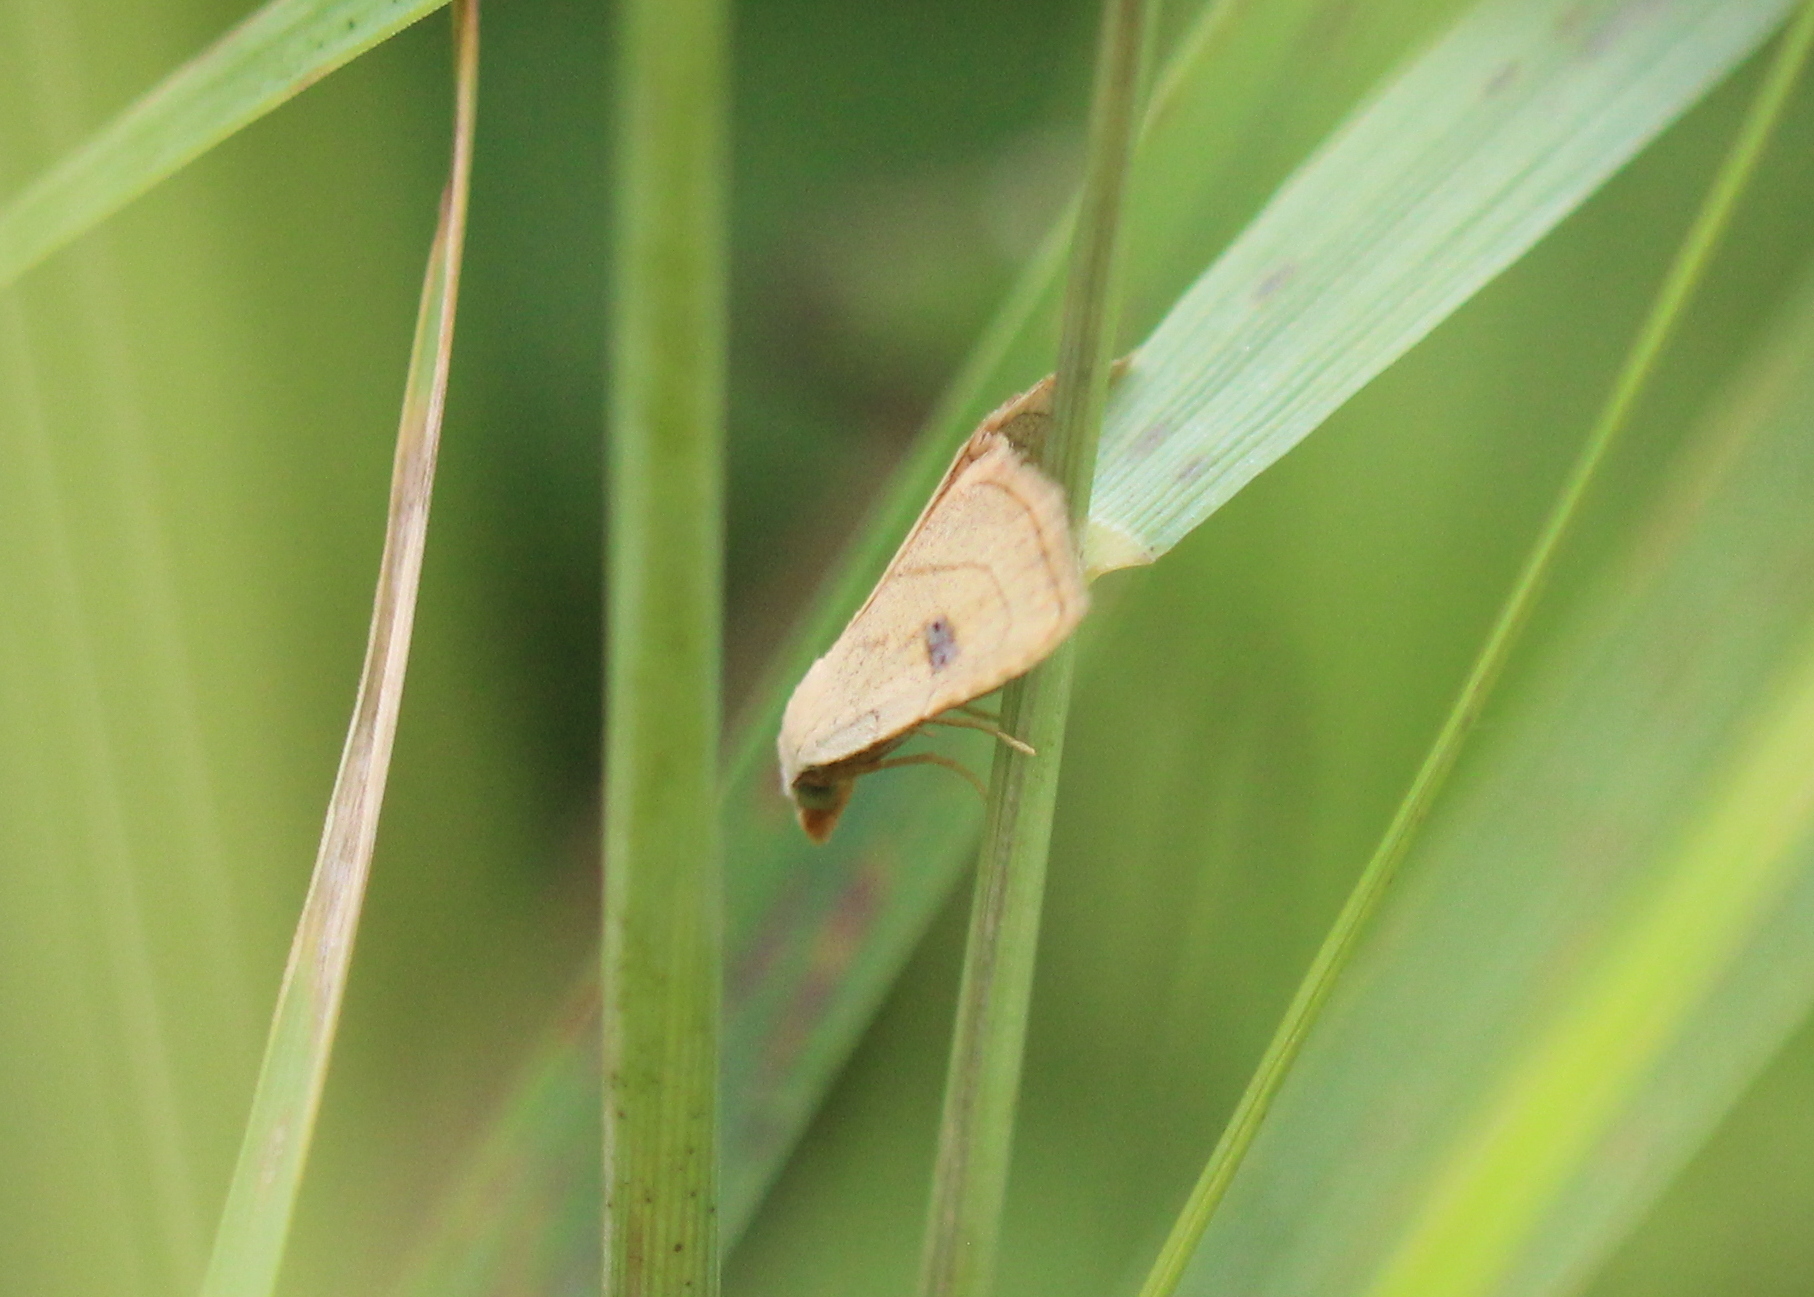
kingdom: Animalia
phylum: Arthropoda
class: Insecta
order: Lepidoptera
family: Erebidae
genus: Rivula
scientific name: Rivula propinqualis
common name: Spotted grass moth
